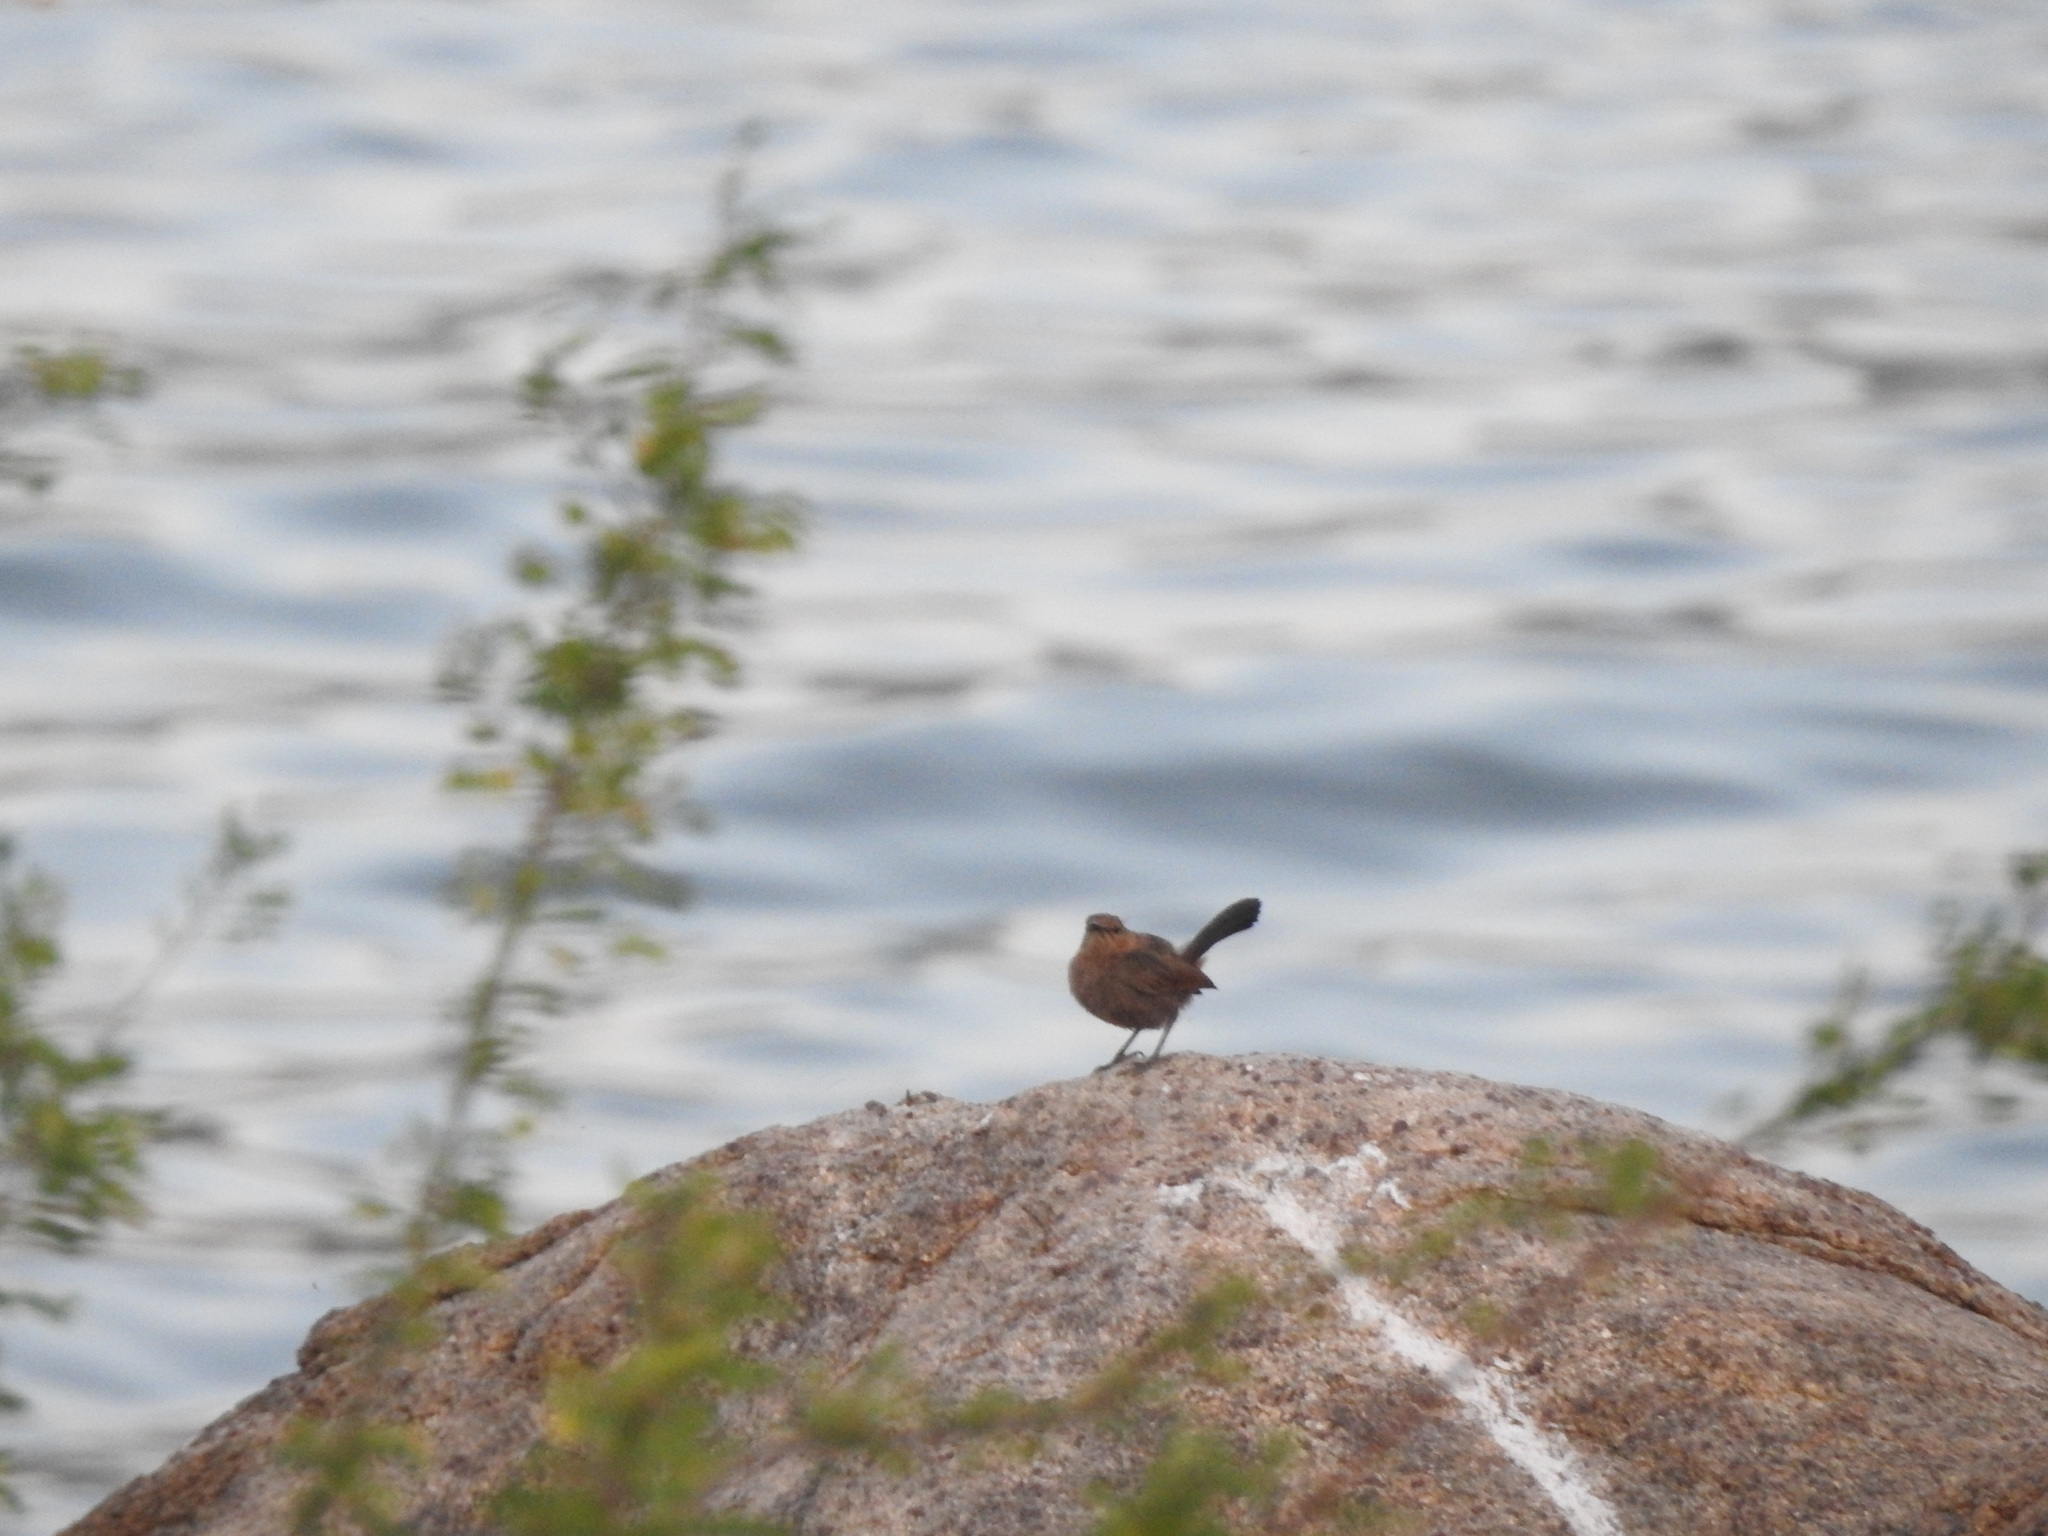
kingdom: Animalia
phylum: Chordata
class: Aves
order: Passeriformes
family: Muscicapidae
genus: Saxicoloides
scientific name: Saxicoloides fulicatus
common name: Indian robin
